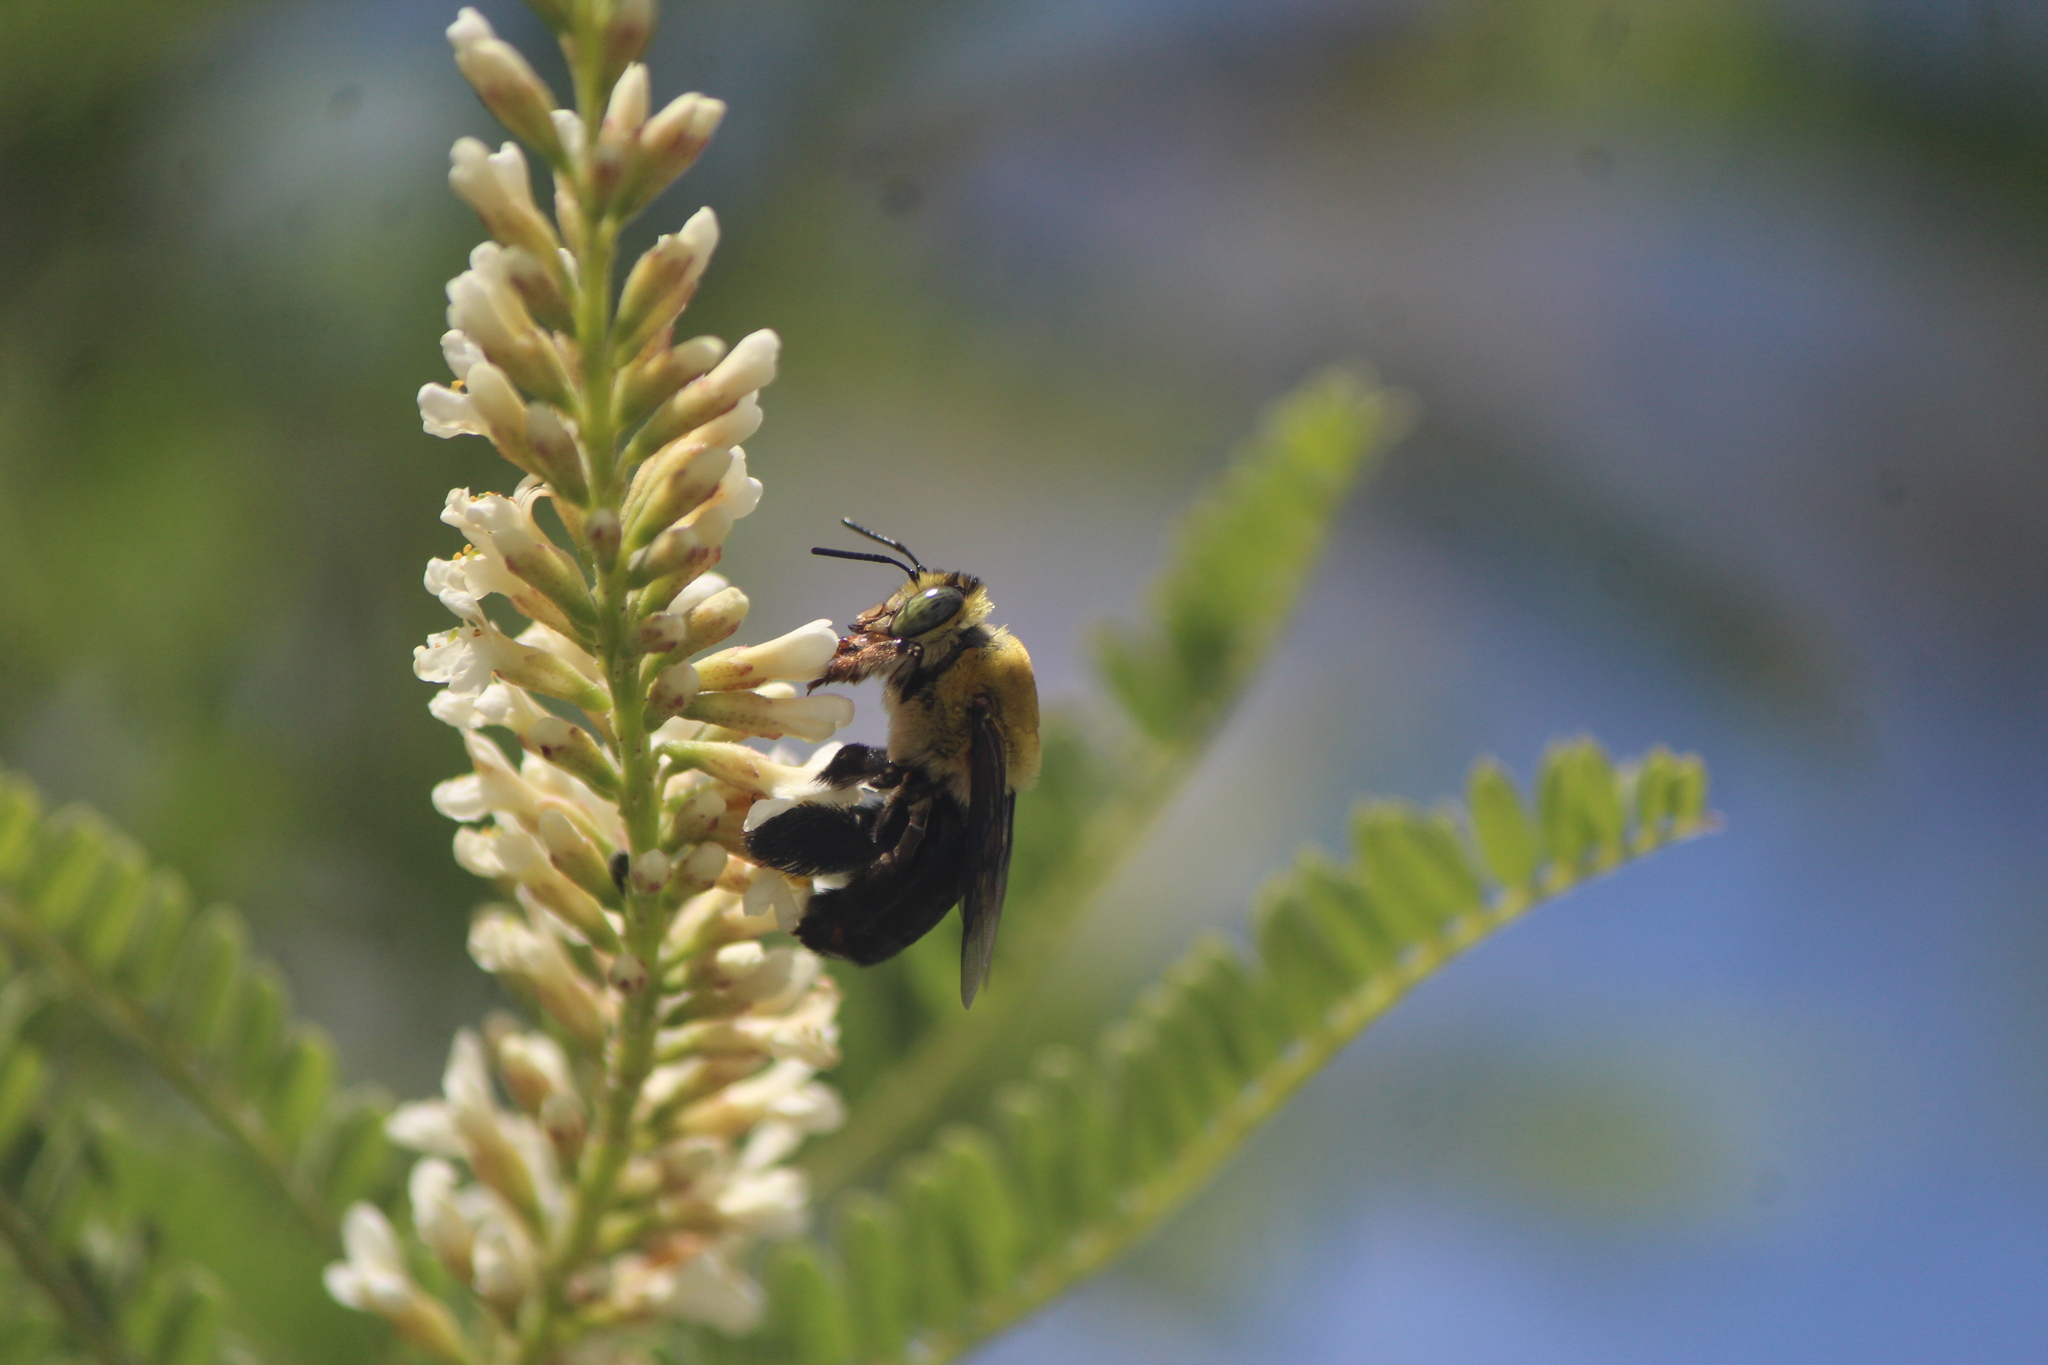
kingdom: Animalia
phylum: Arthropoda
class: Insecta
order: Hymenoptera
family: Apidae
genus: Centris
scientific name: Centris nitida
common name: Oil-collecting bee
